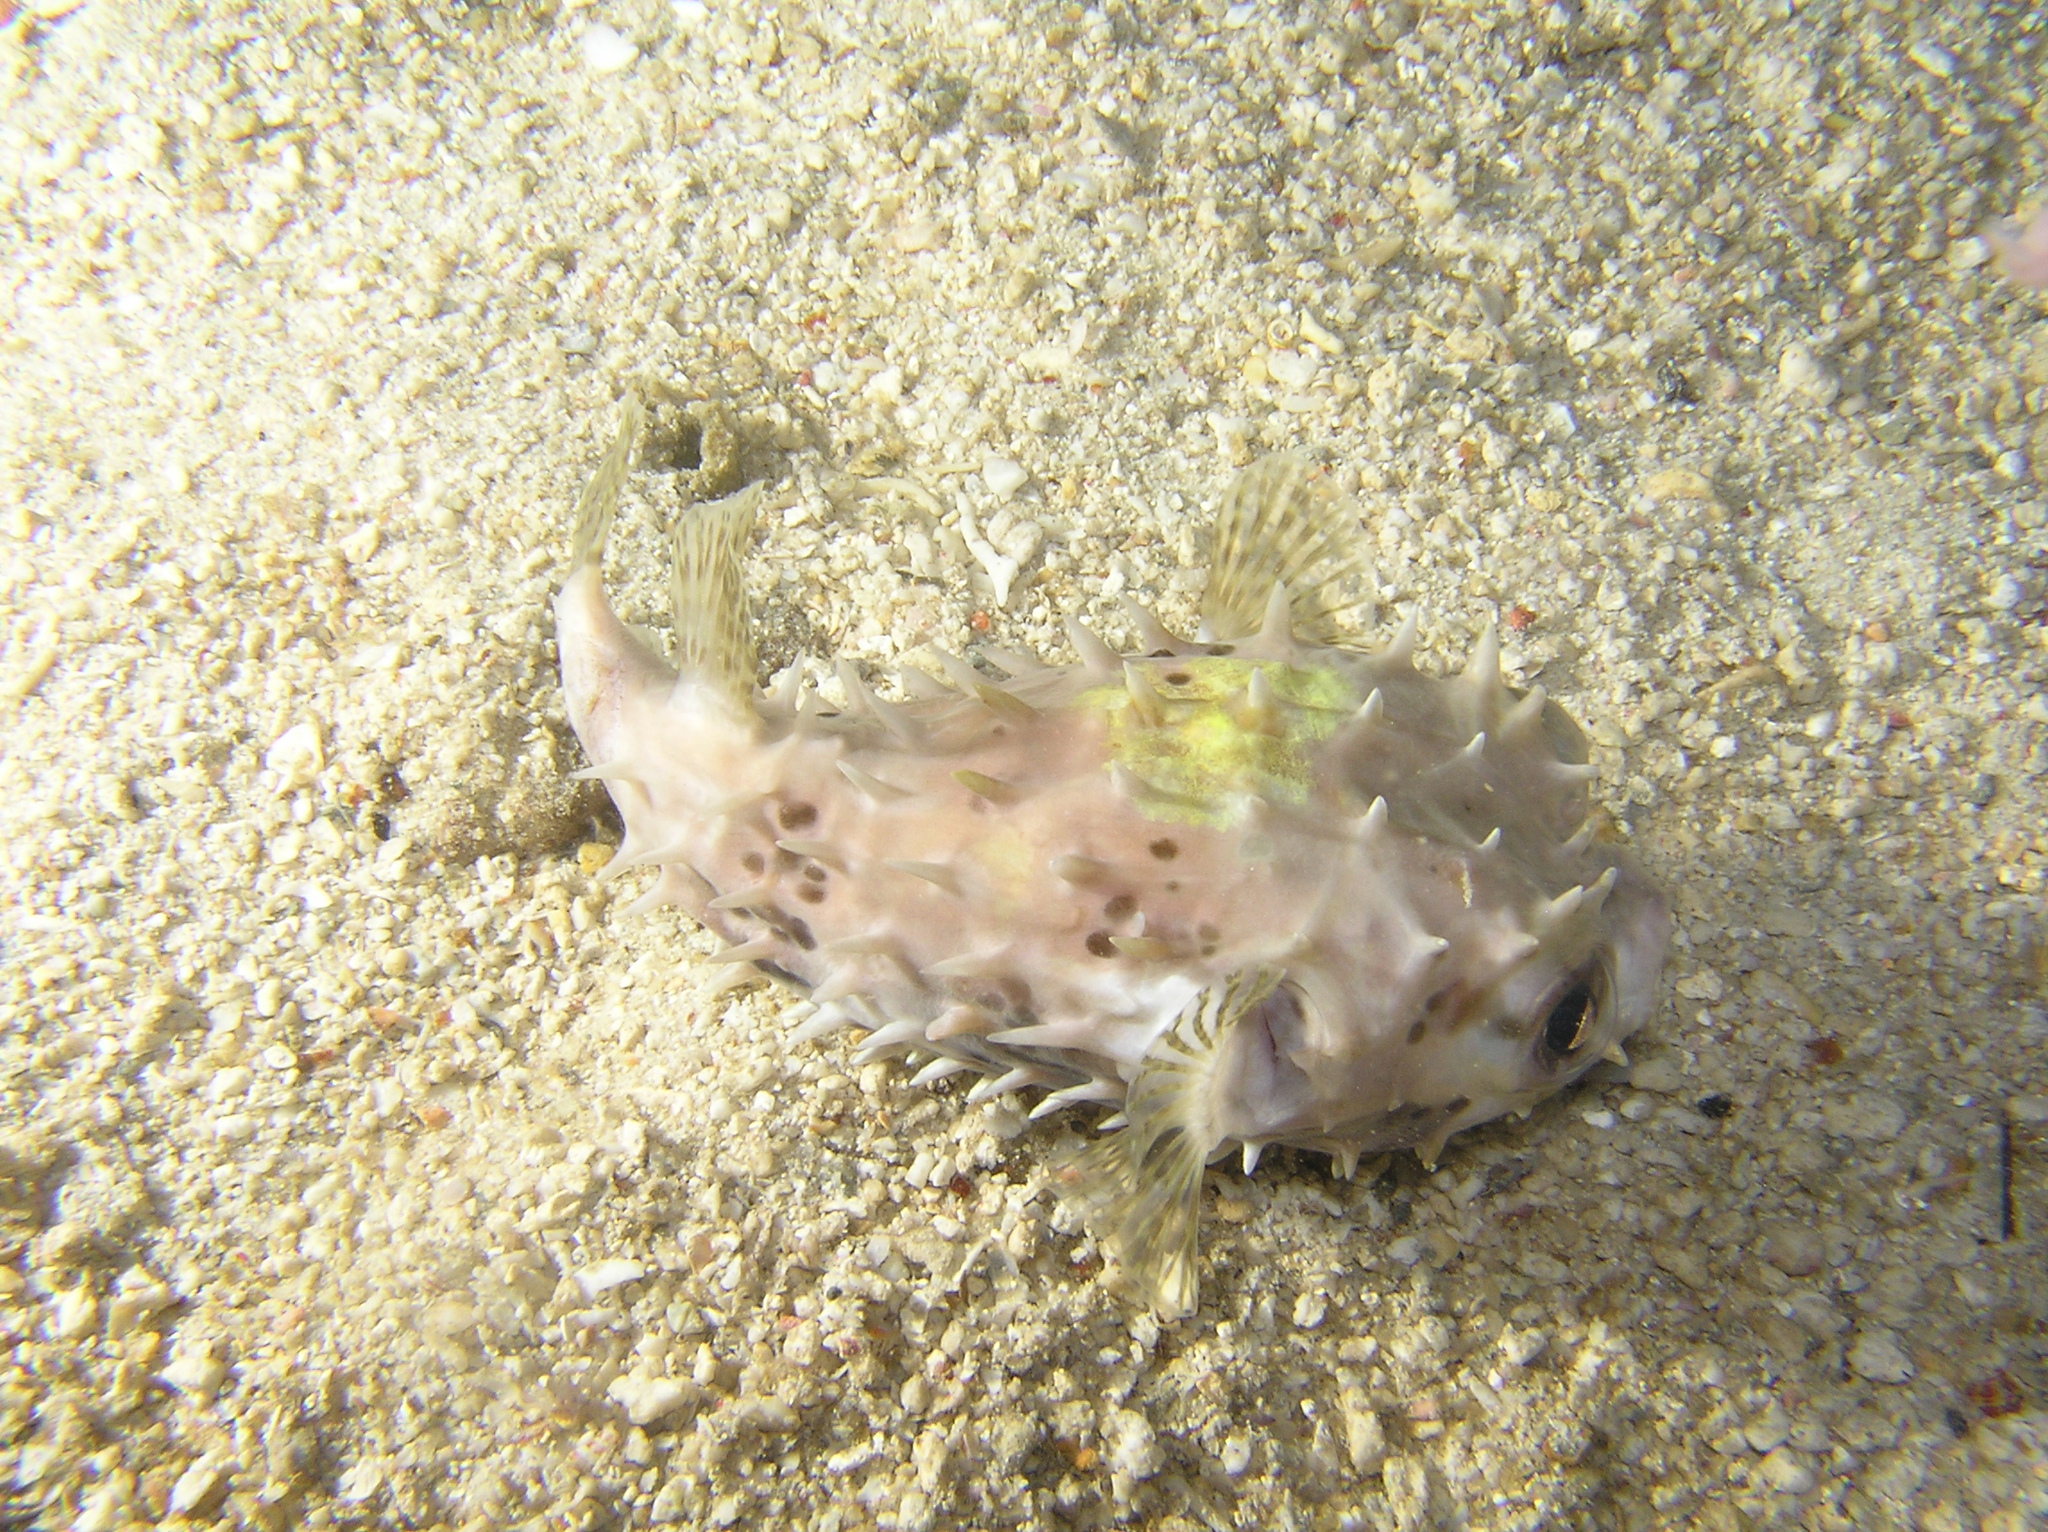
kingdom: Animalia
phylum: Chordata
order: Tetraodontiformes
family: Diodontidae
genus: Cyclichthys
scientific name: Cyclichthys orbicularis
